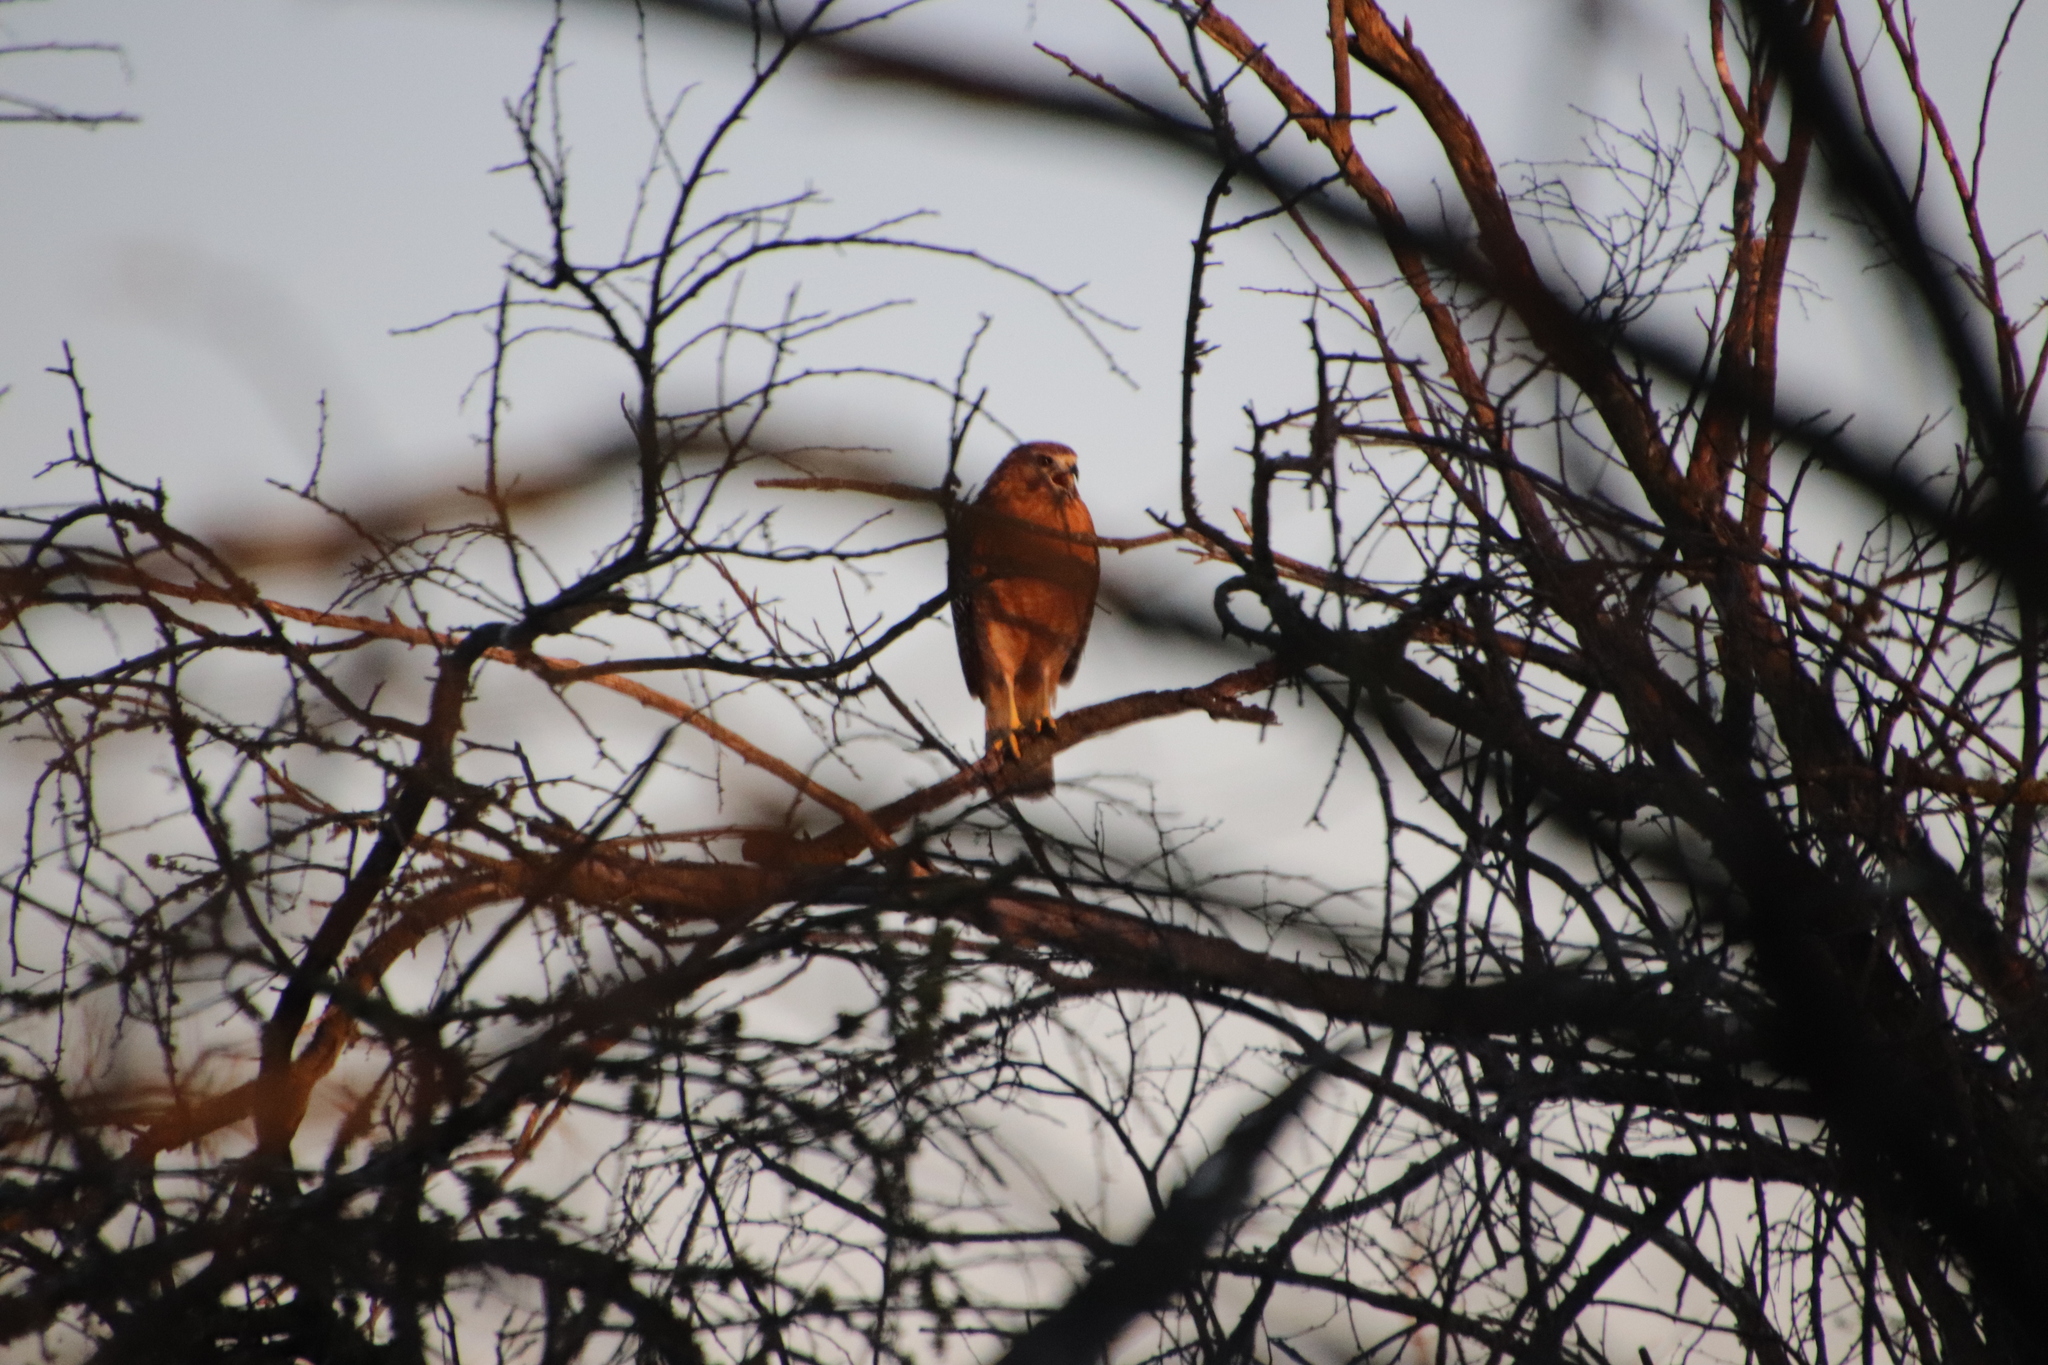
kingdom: Animalia
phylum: Chordata
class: Aves
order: Accipitriformes
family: Accipitridae
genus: Buteo
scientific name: Buteo lineatus
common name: Red-shouldered hawk
